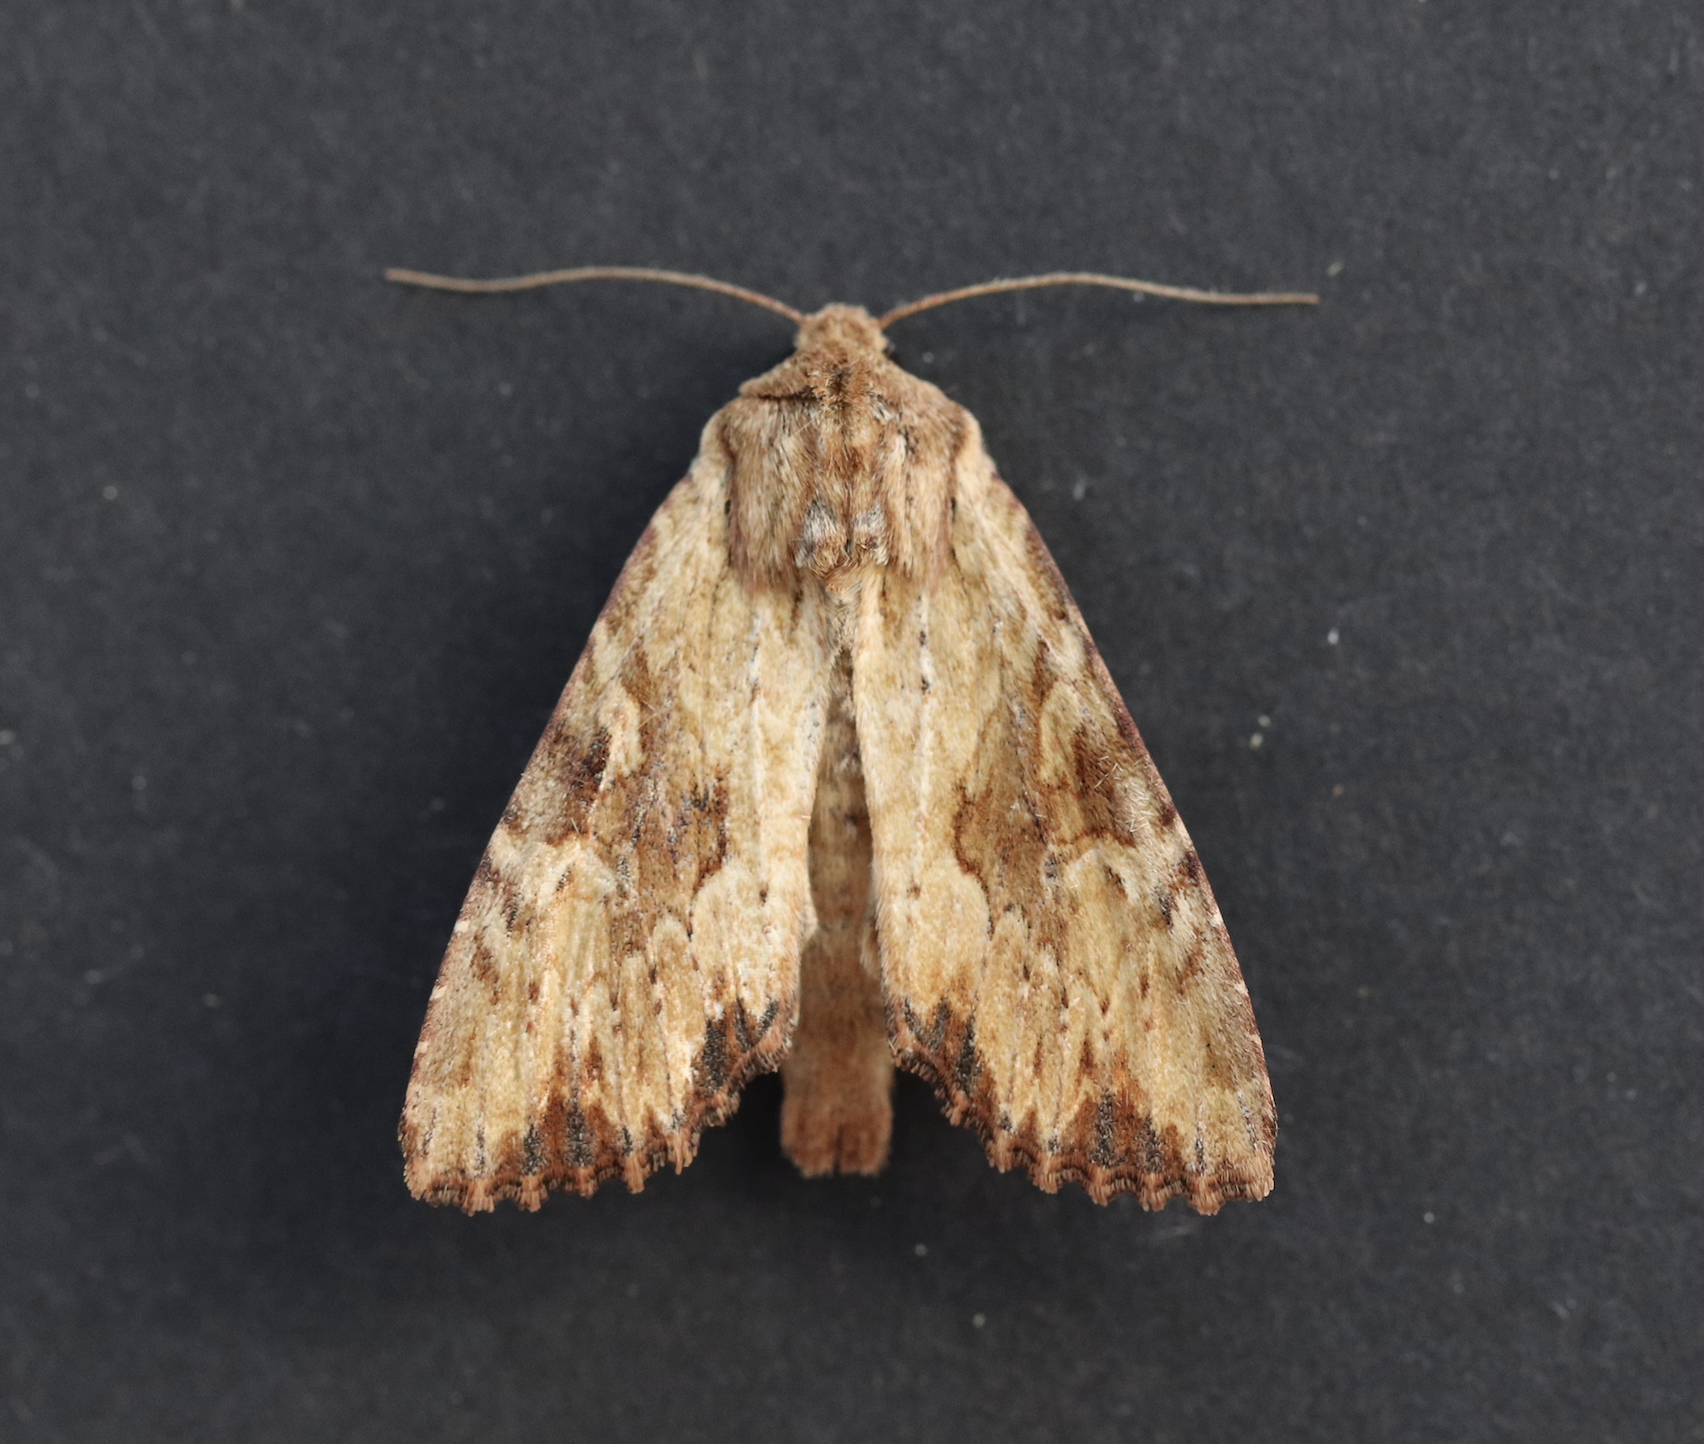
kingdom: Animalia
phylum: Arthropoda
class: Insecta
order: Lepidoptera
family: Noctuidae
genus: Apamea
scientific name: Apamea sublustris
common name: Reddish light arches
